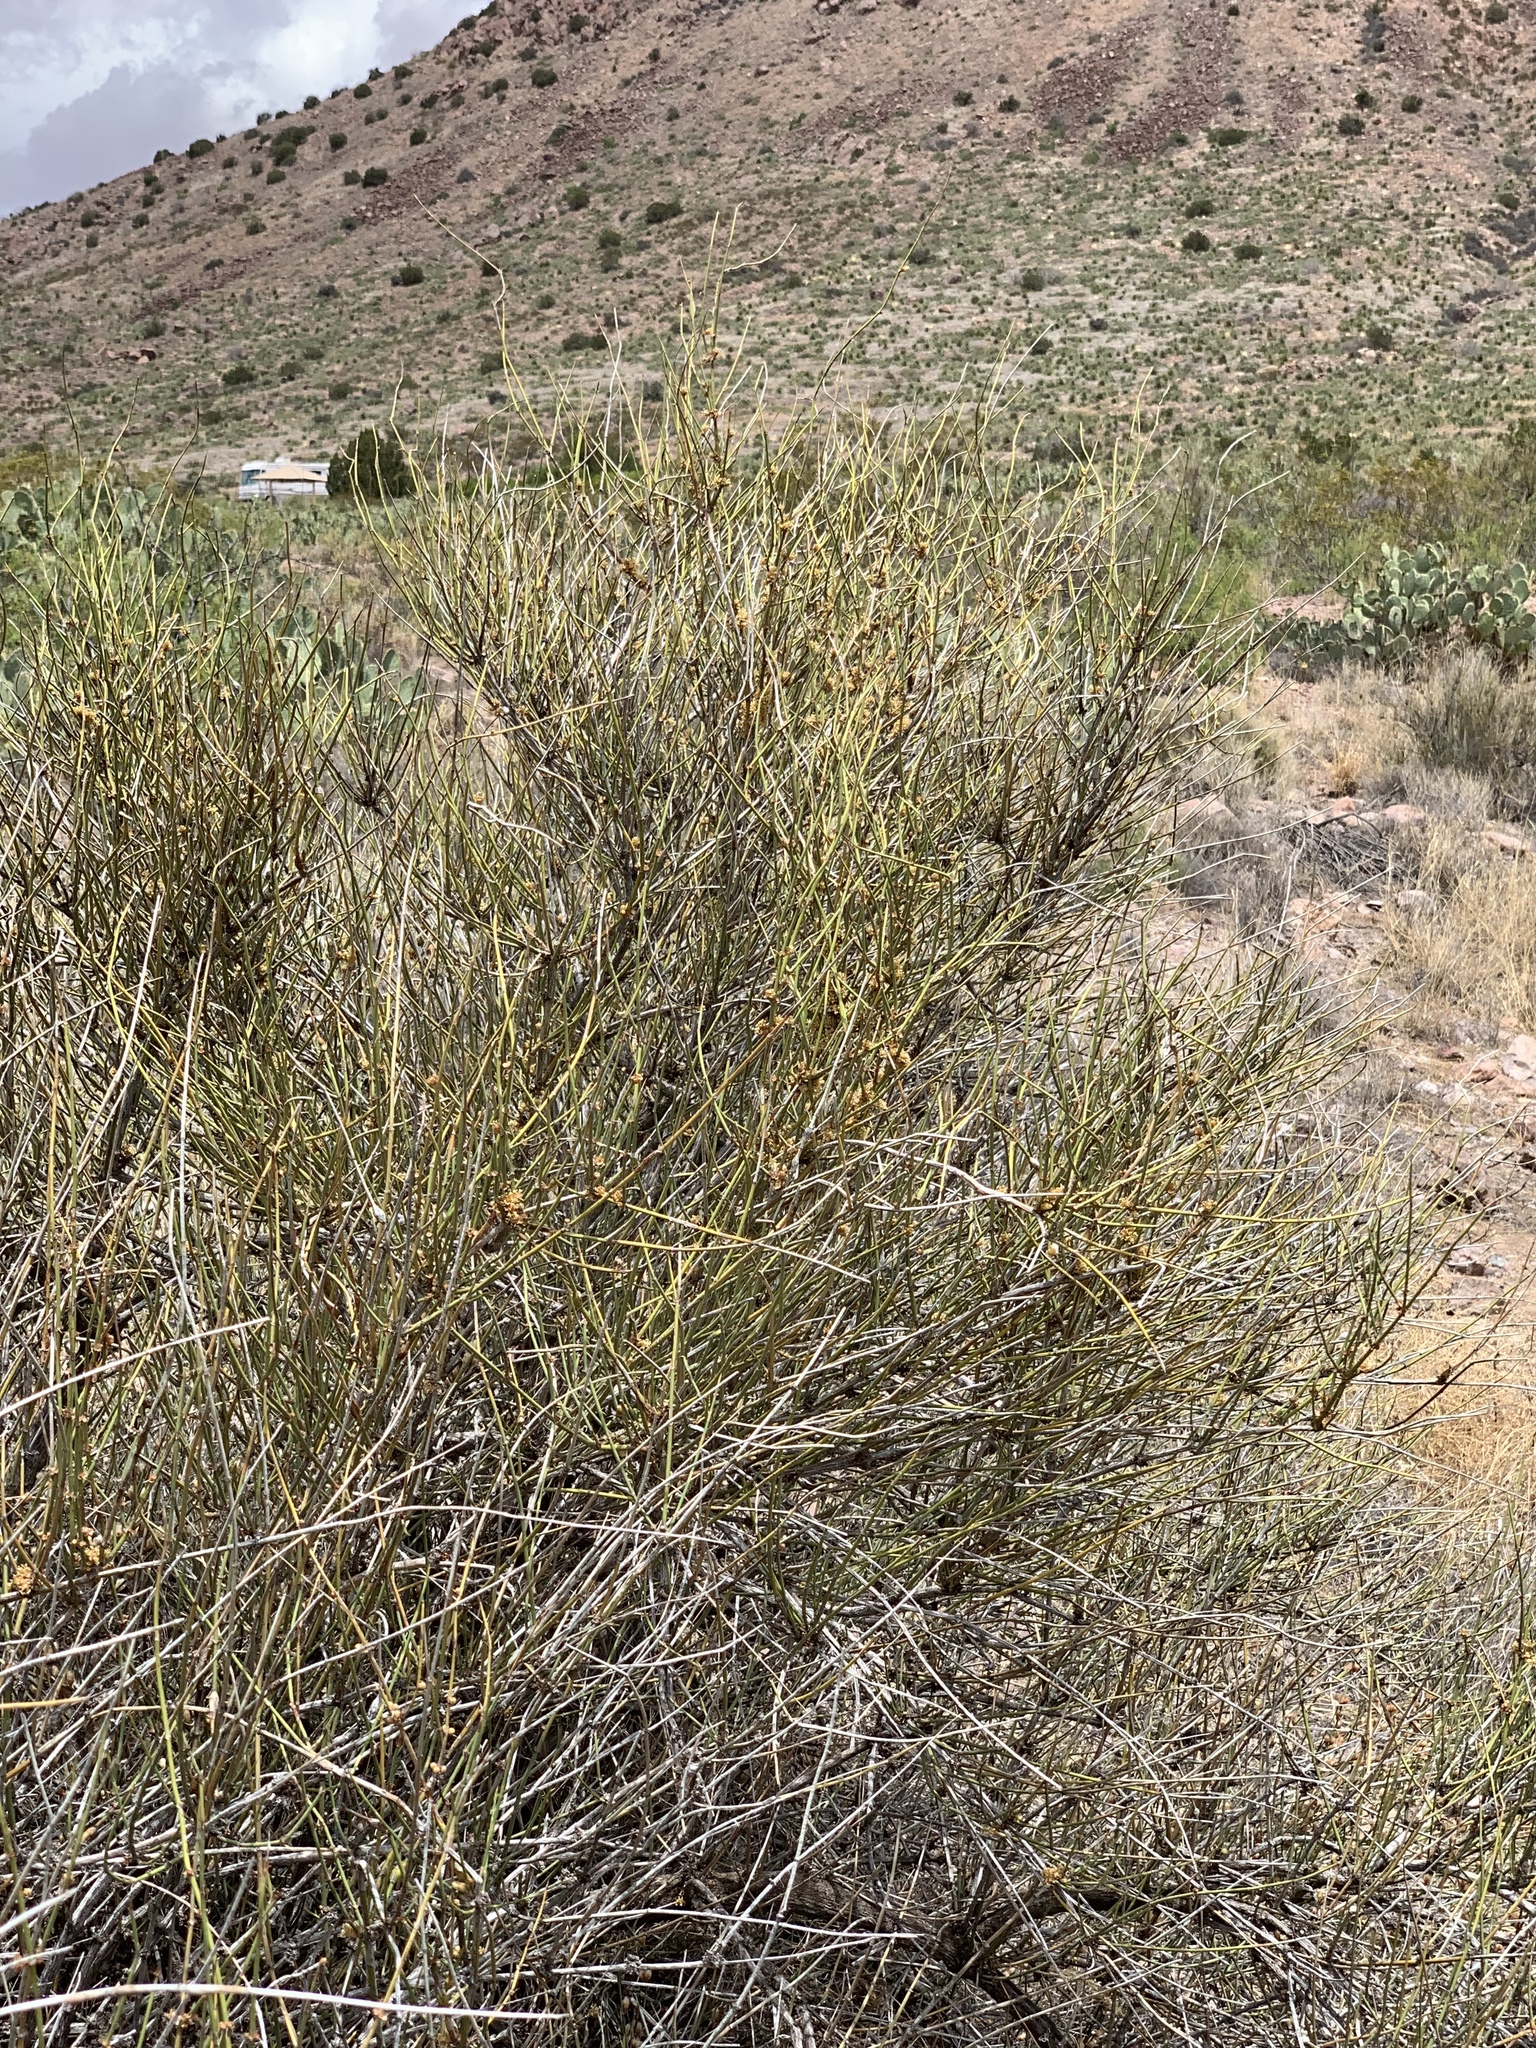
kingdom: Plantae
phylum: Tracheophyta
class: Gnetopsida
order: Ephedrales
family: Ephedraceae
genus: Ephedra
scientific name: Ephedra trifurca
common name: Mexican-tea
